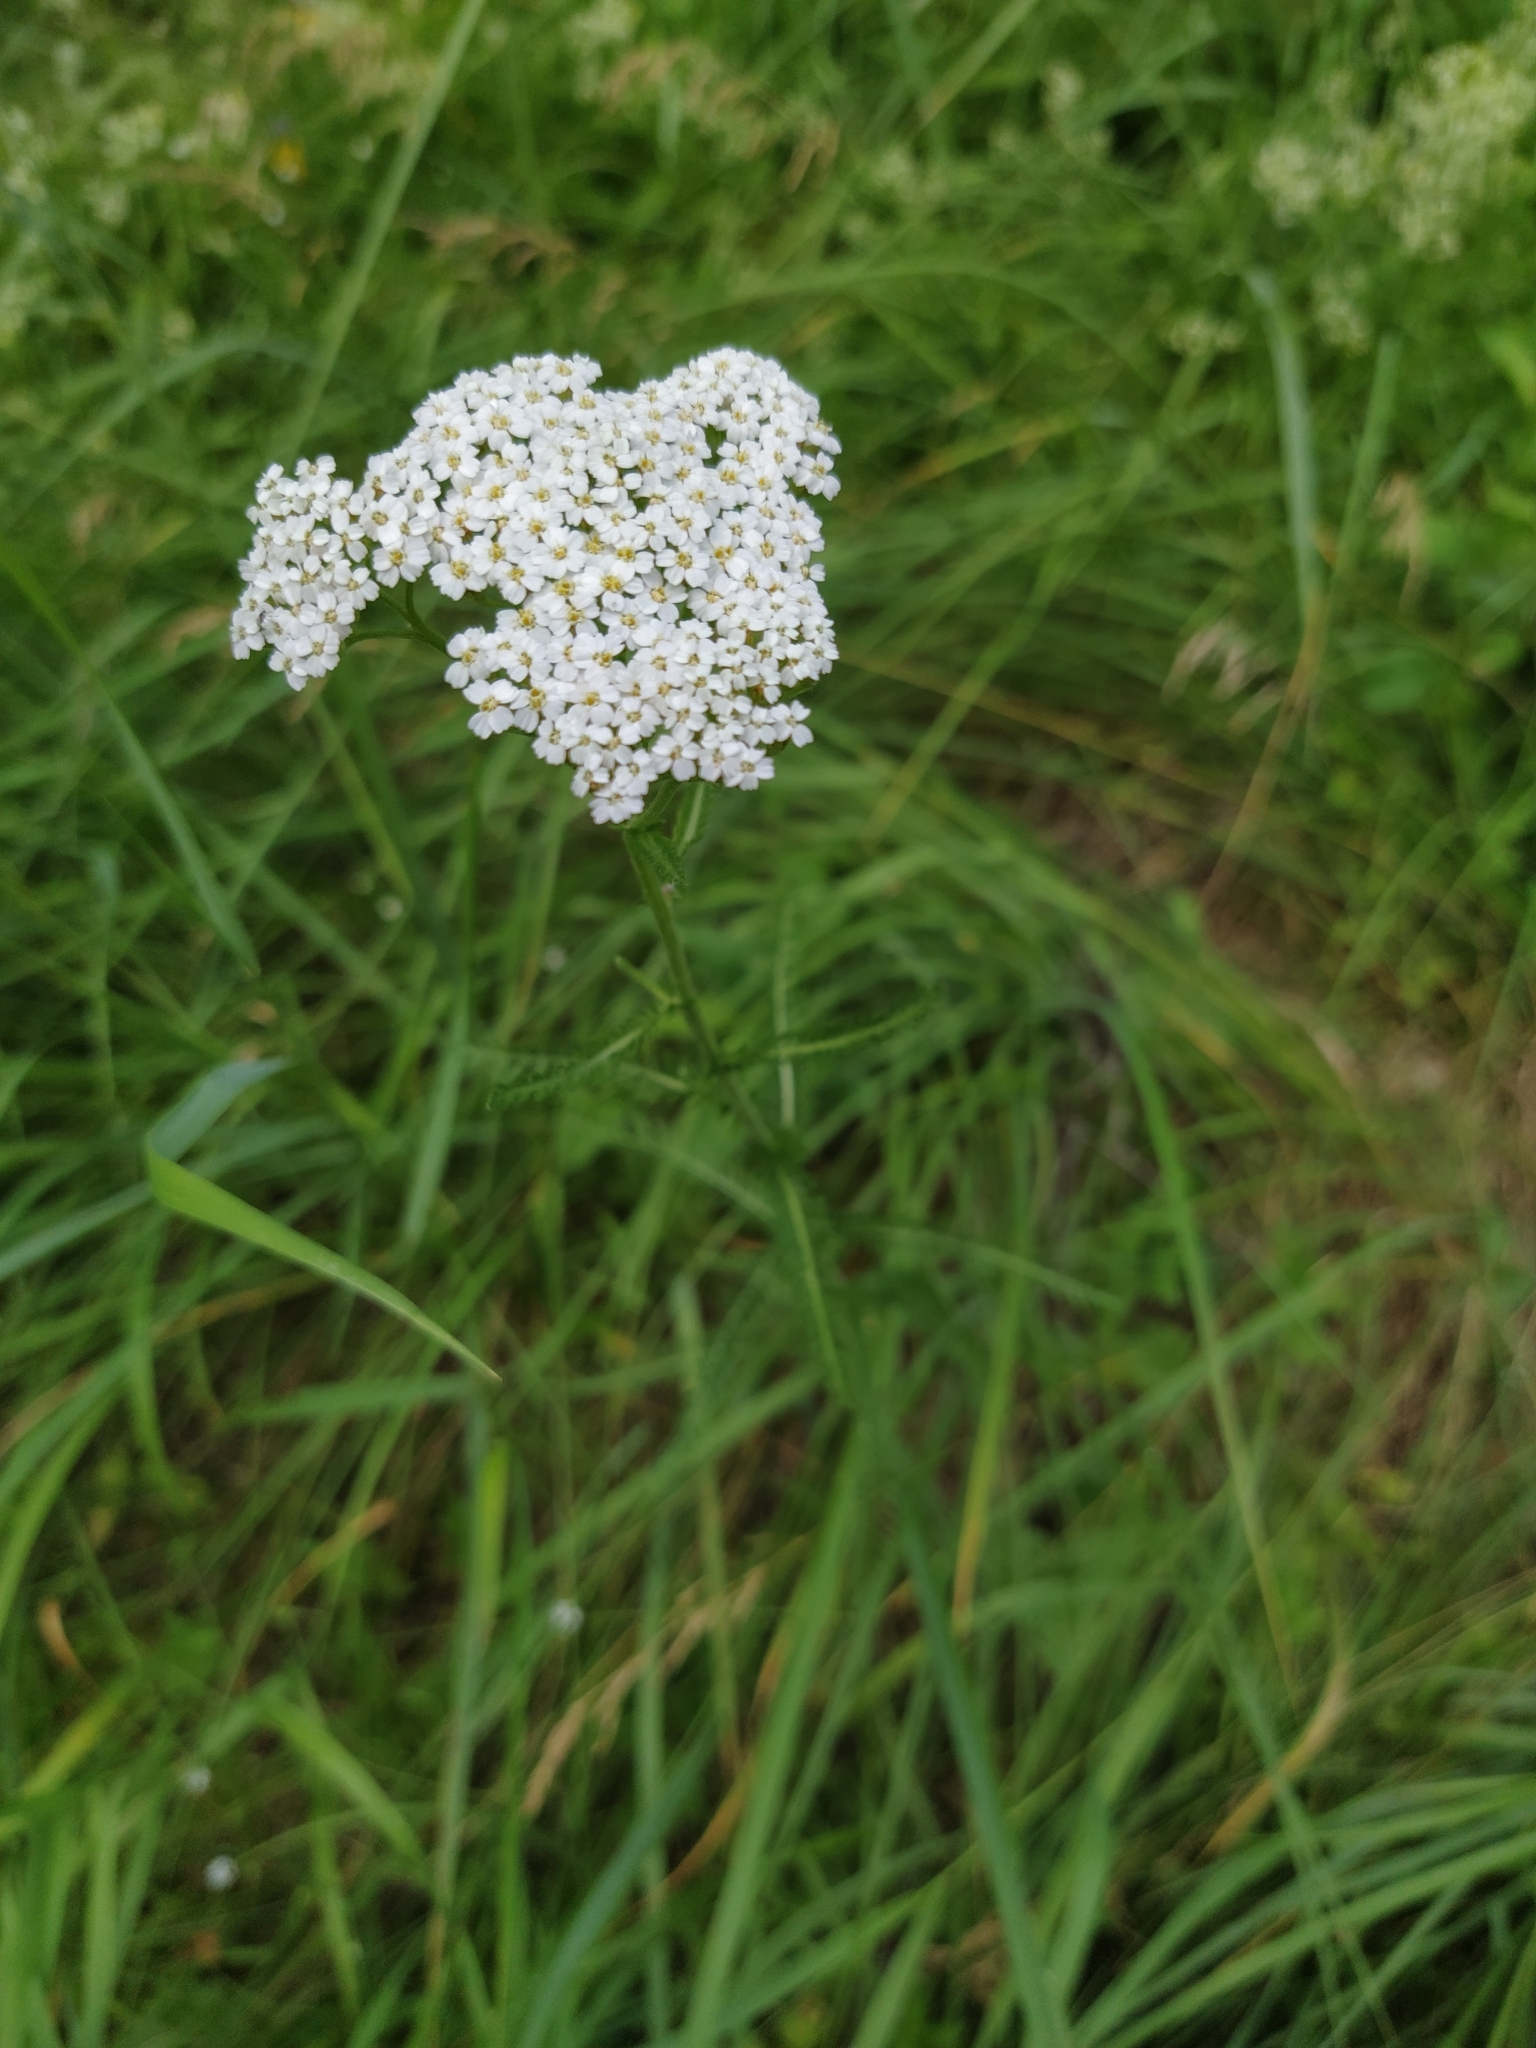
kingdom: Plantae
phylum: Tracheophyta
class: Magnoliopsida
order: Asterales
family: Asteraceae
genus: Achillea
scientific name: Achillea millefolium
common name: Yarrow
